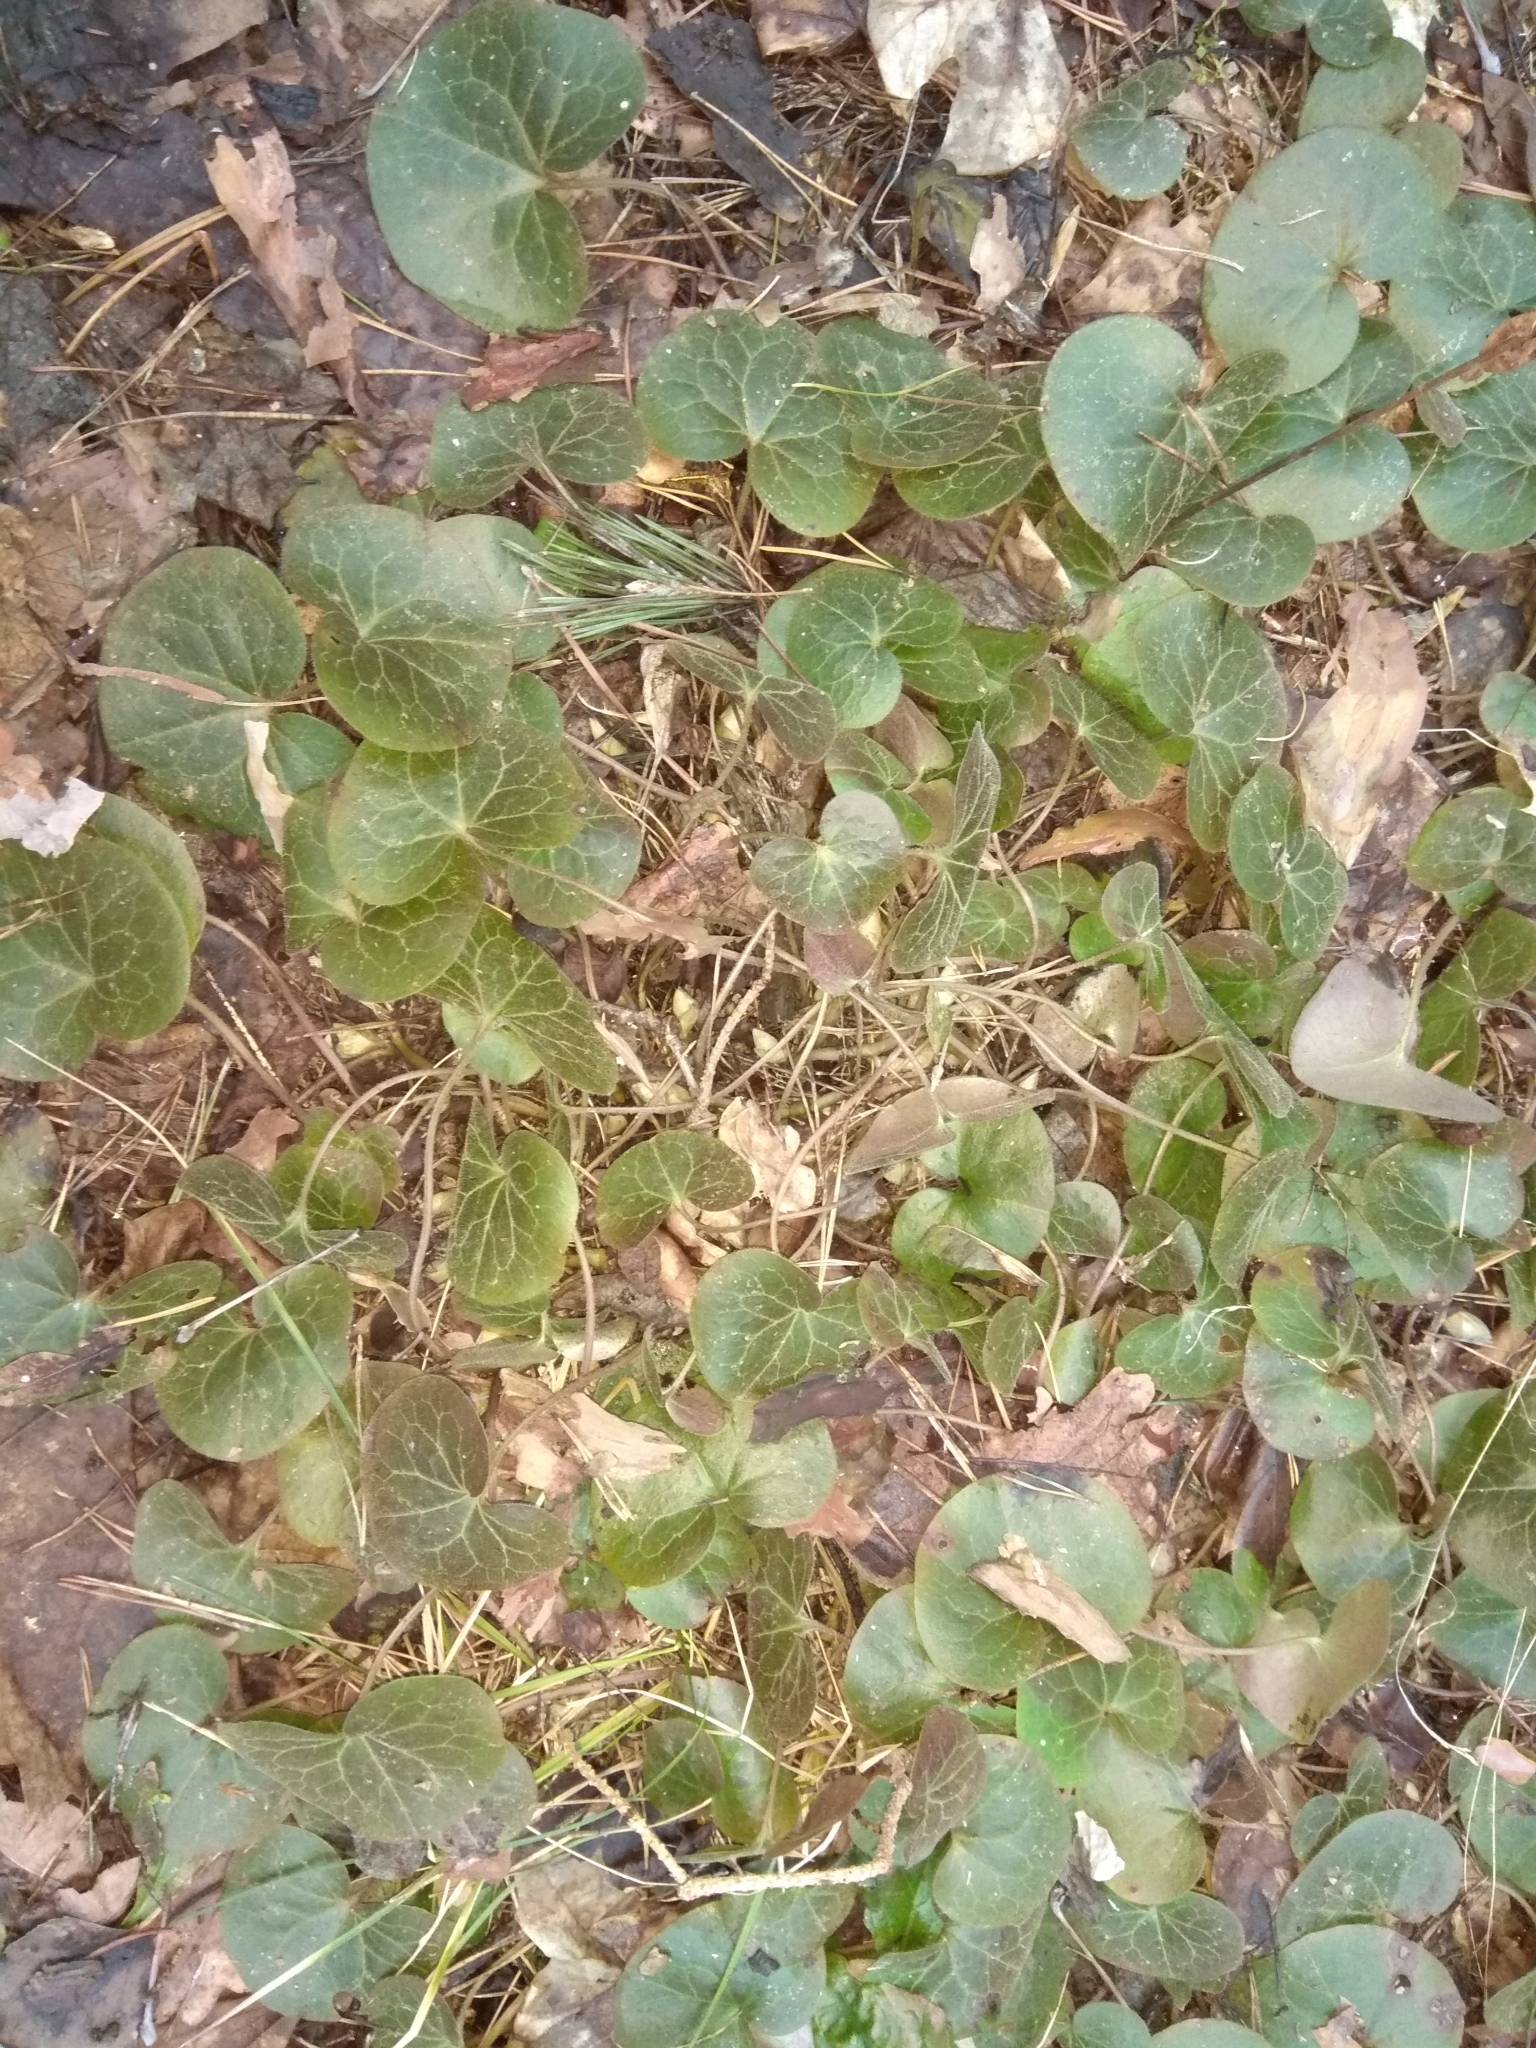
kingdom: Plantae
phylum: Tracheophyta
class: Magnoliopsida
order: Piperales
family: Aristolochiaceae
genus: Asarum
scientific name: Asarum europaeum
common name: Asarabacca
